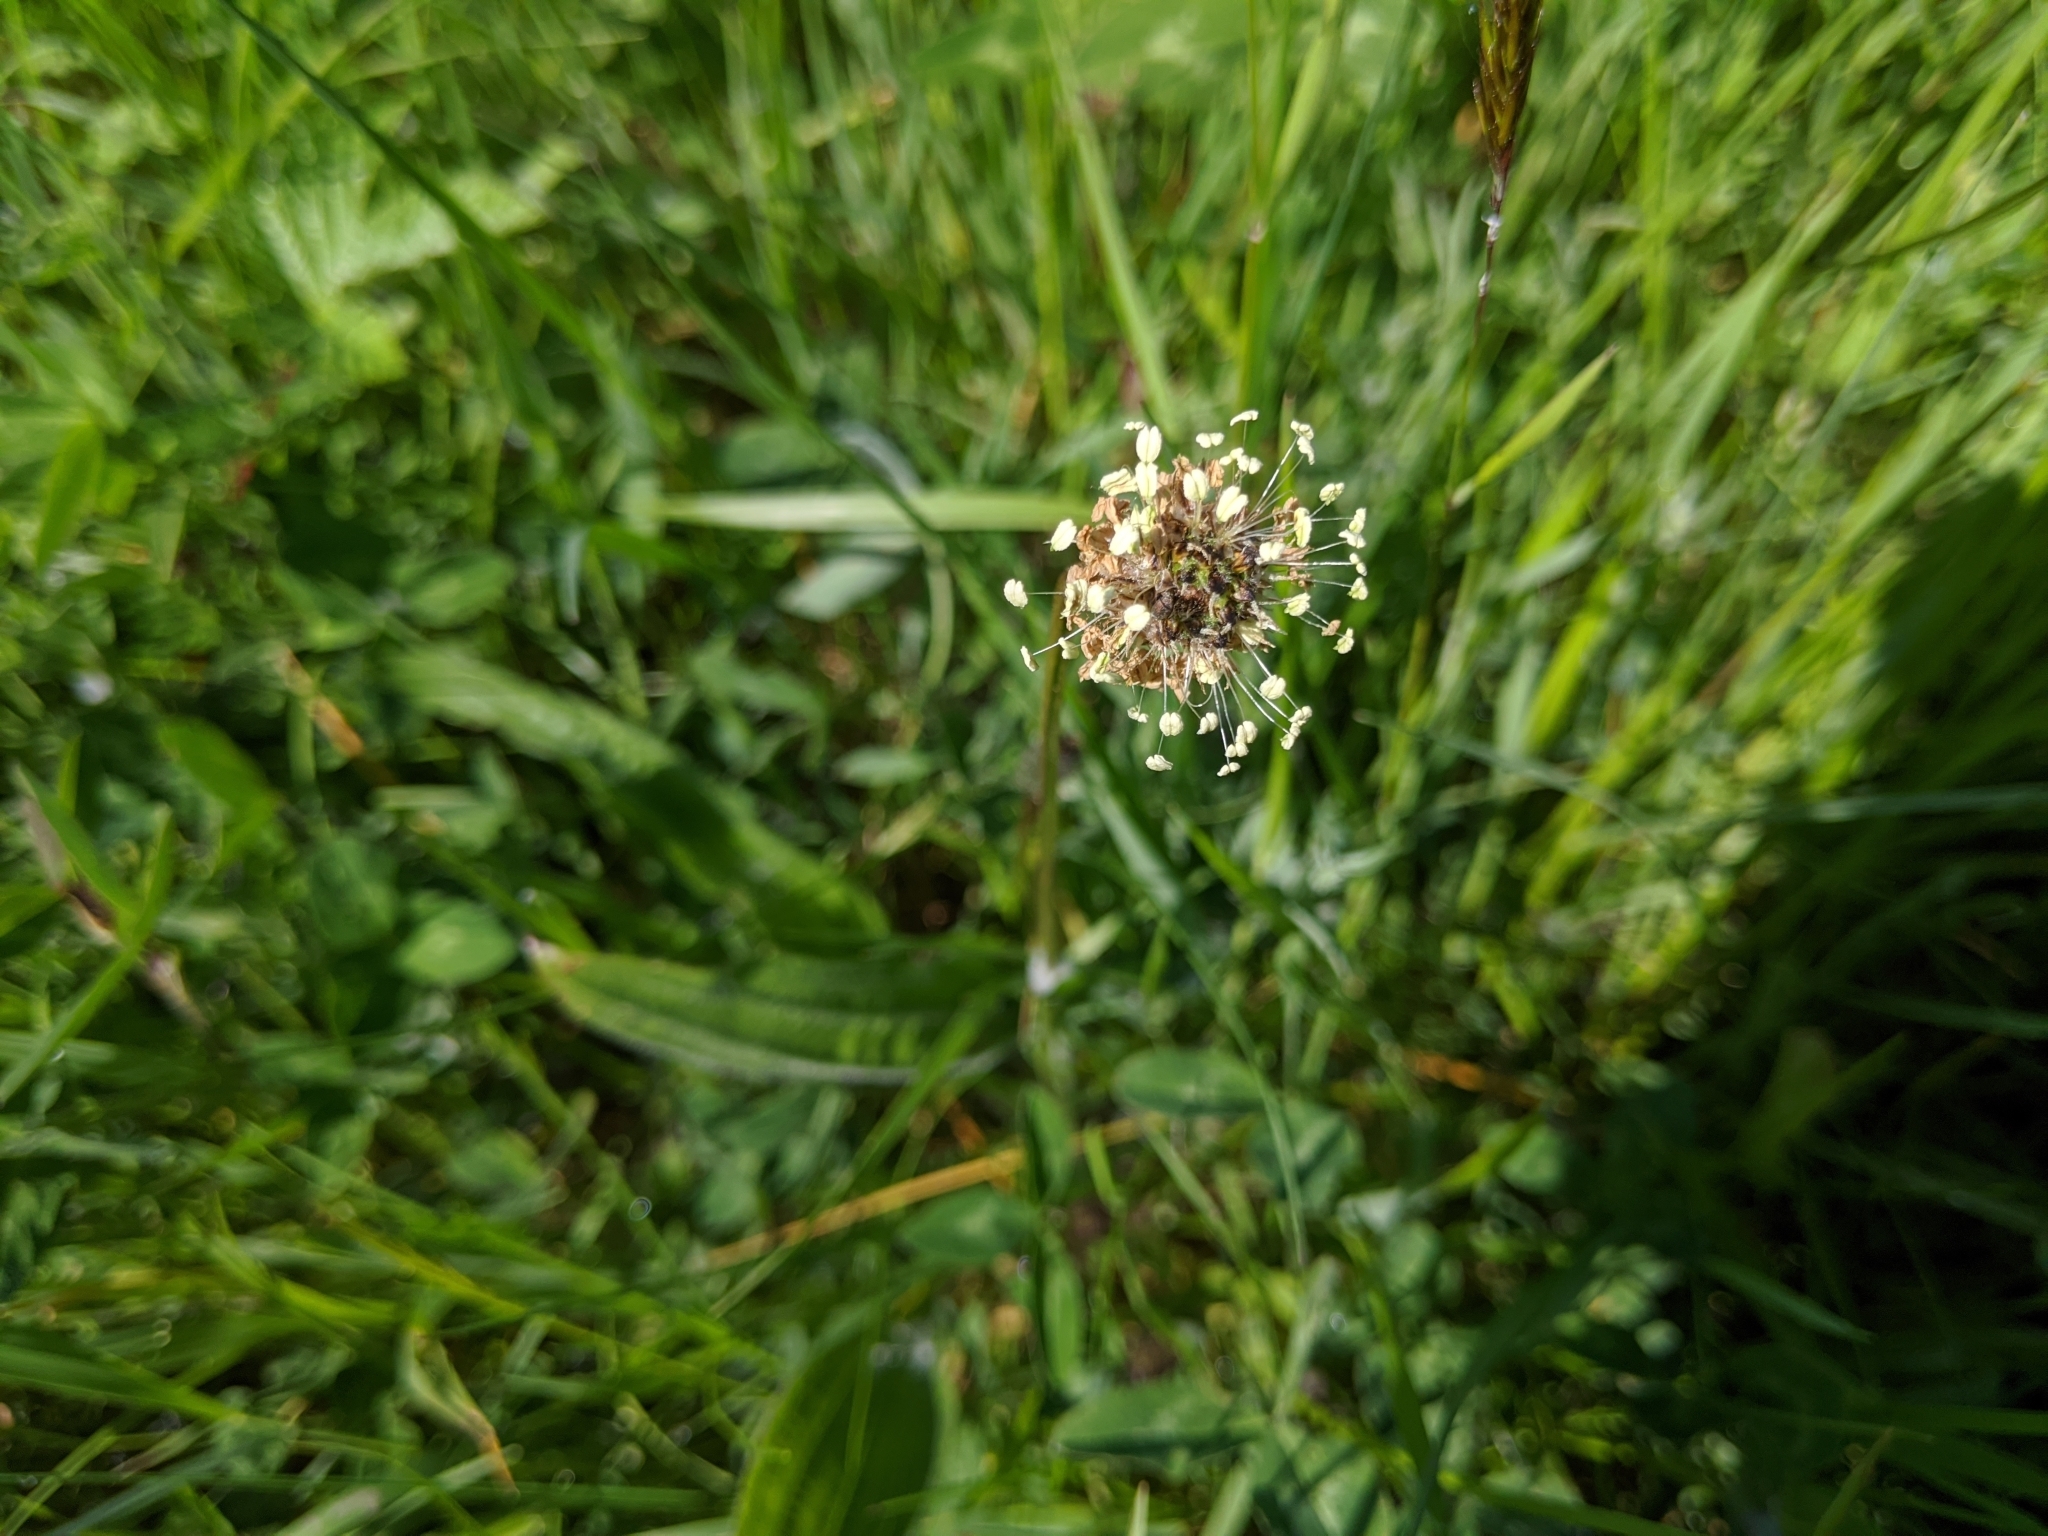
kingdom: Plantae
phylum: Tracheophyta
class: Magnoliopsida
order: Lamiales
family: Plantaginaceae
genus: Plantago
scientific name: Plantago lanceolata
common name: Ribwort plantain
